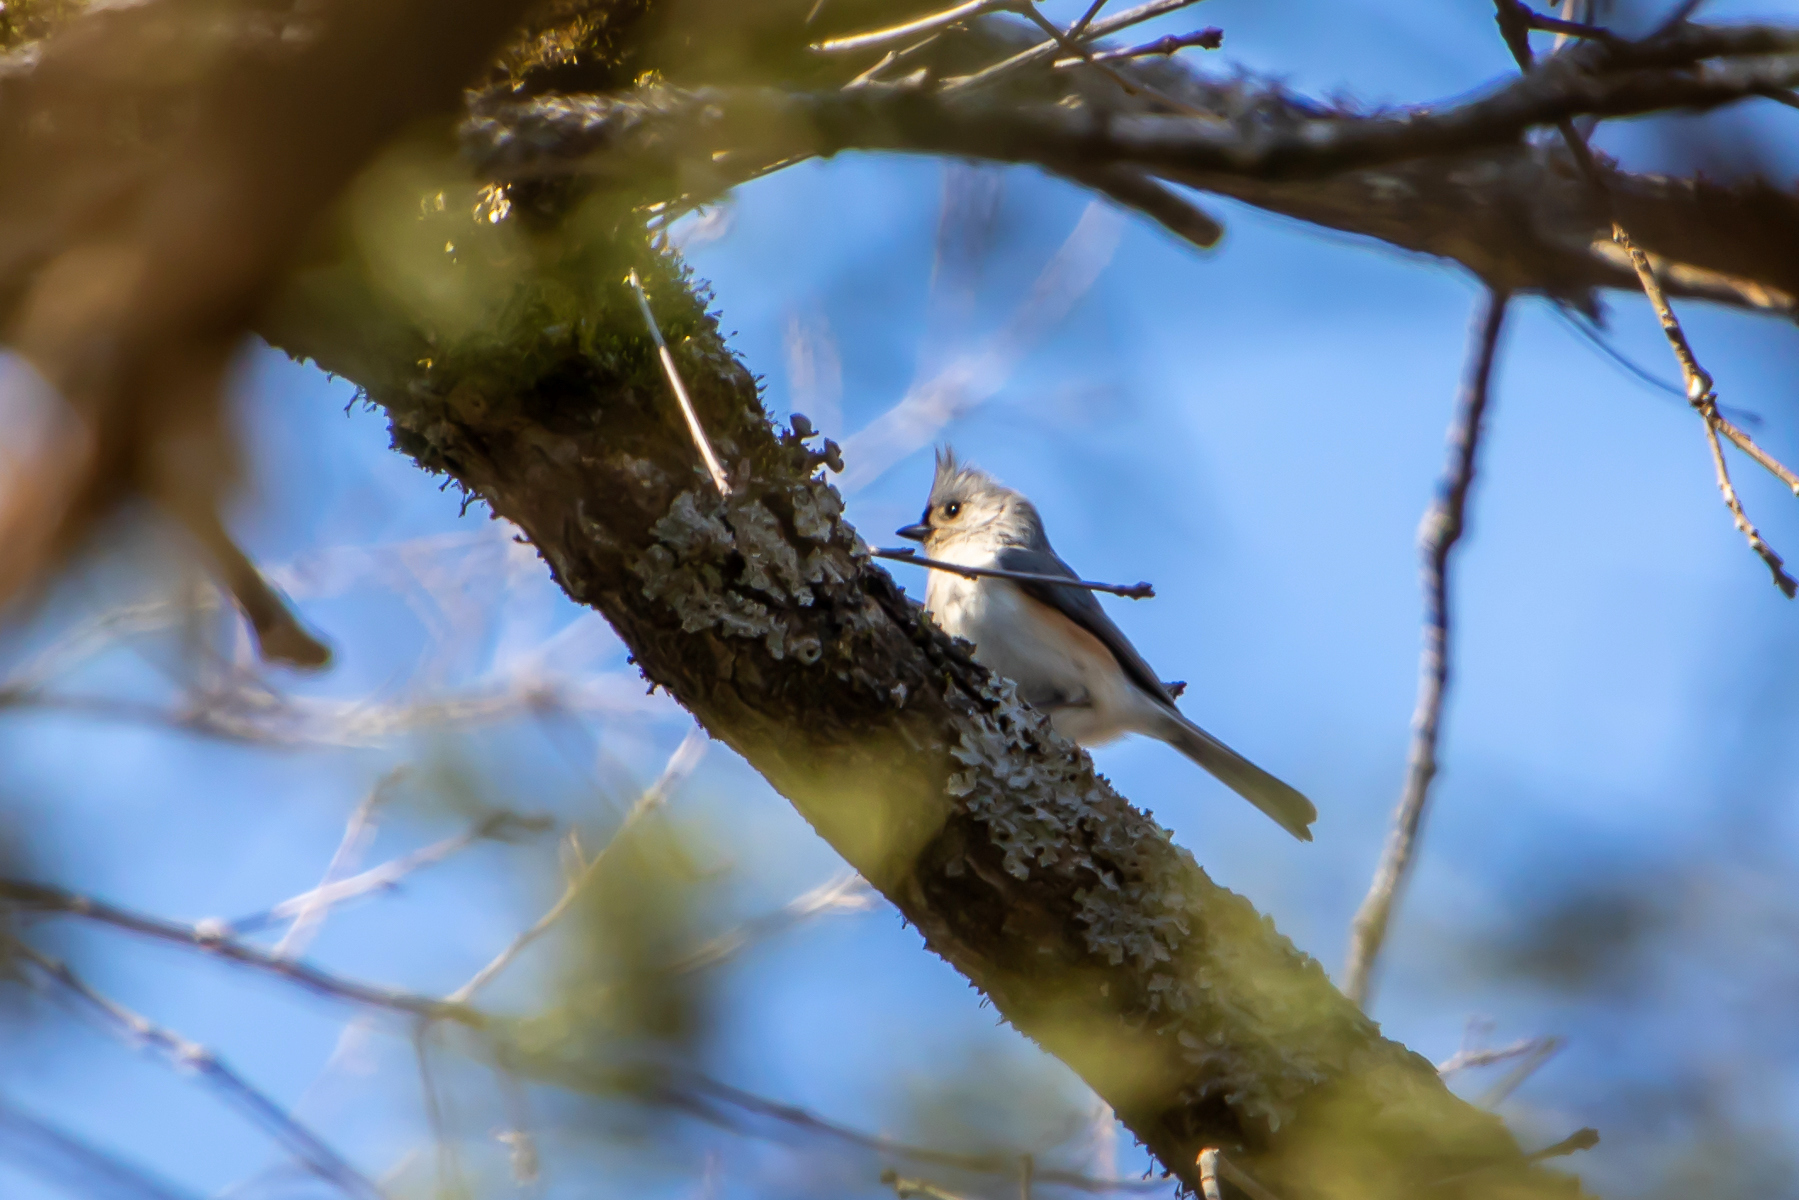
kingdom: Animalia
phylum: Chordata
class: Aves
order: Passeriformes
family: Paridae
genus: Baeolophus
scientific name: Baeolophus bicolor
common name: Tufted titmouse
